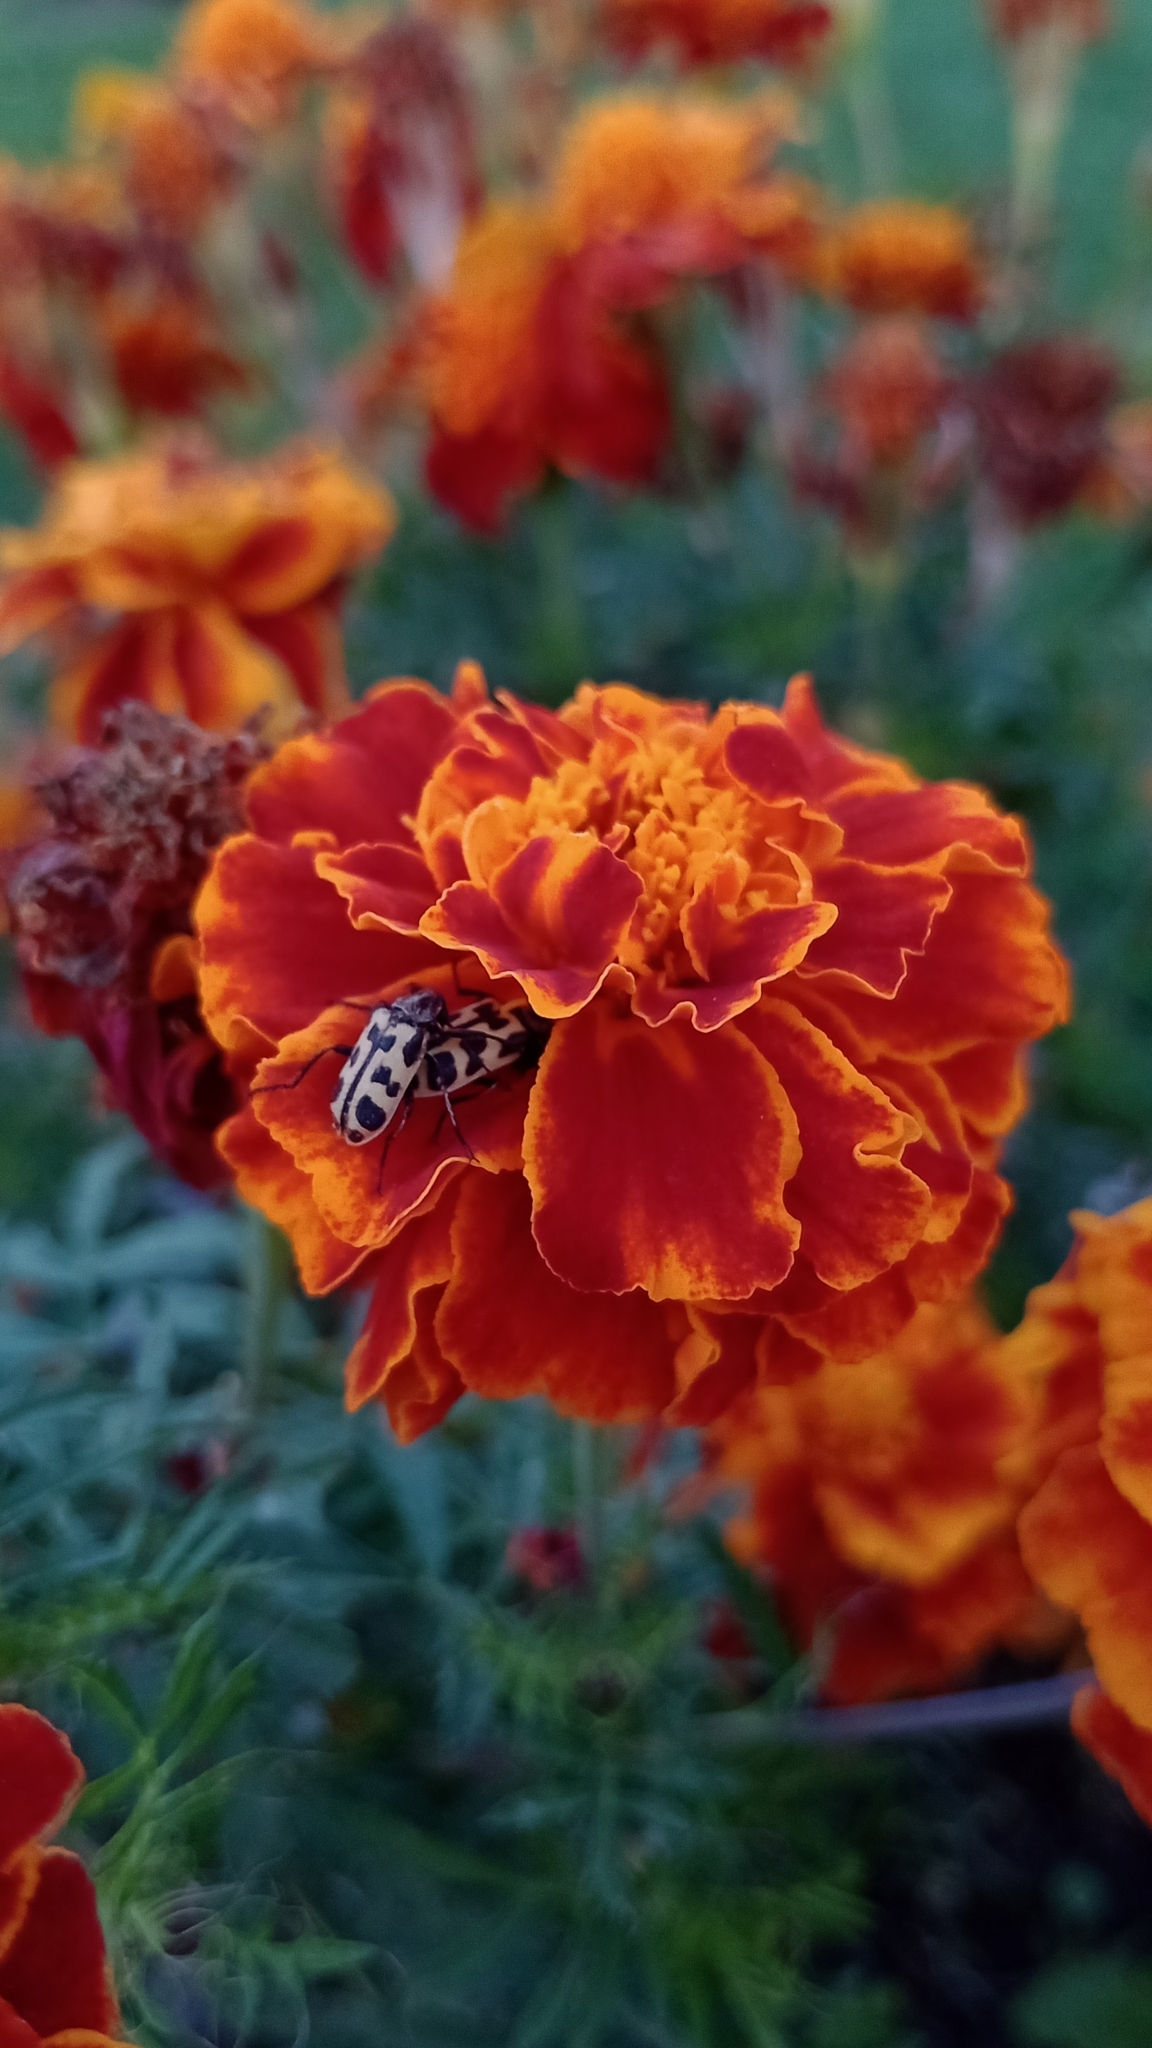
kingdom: Animalia
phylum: Arthropoda
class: Insecta
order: Coleoptera
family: Melyridae
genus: Astylus
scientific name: Astylus atromaculatus
